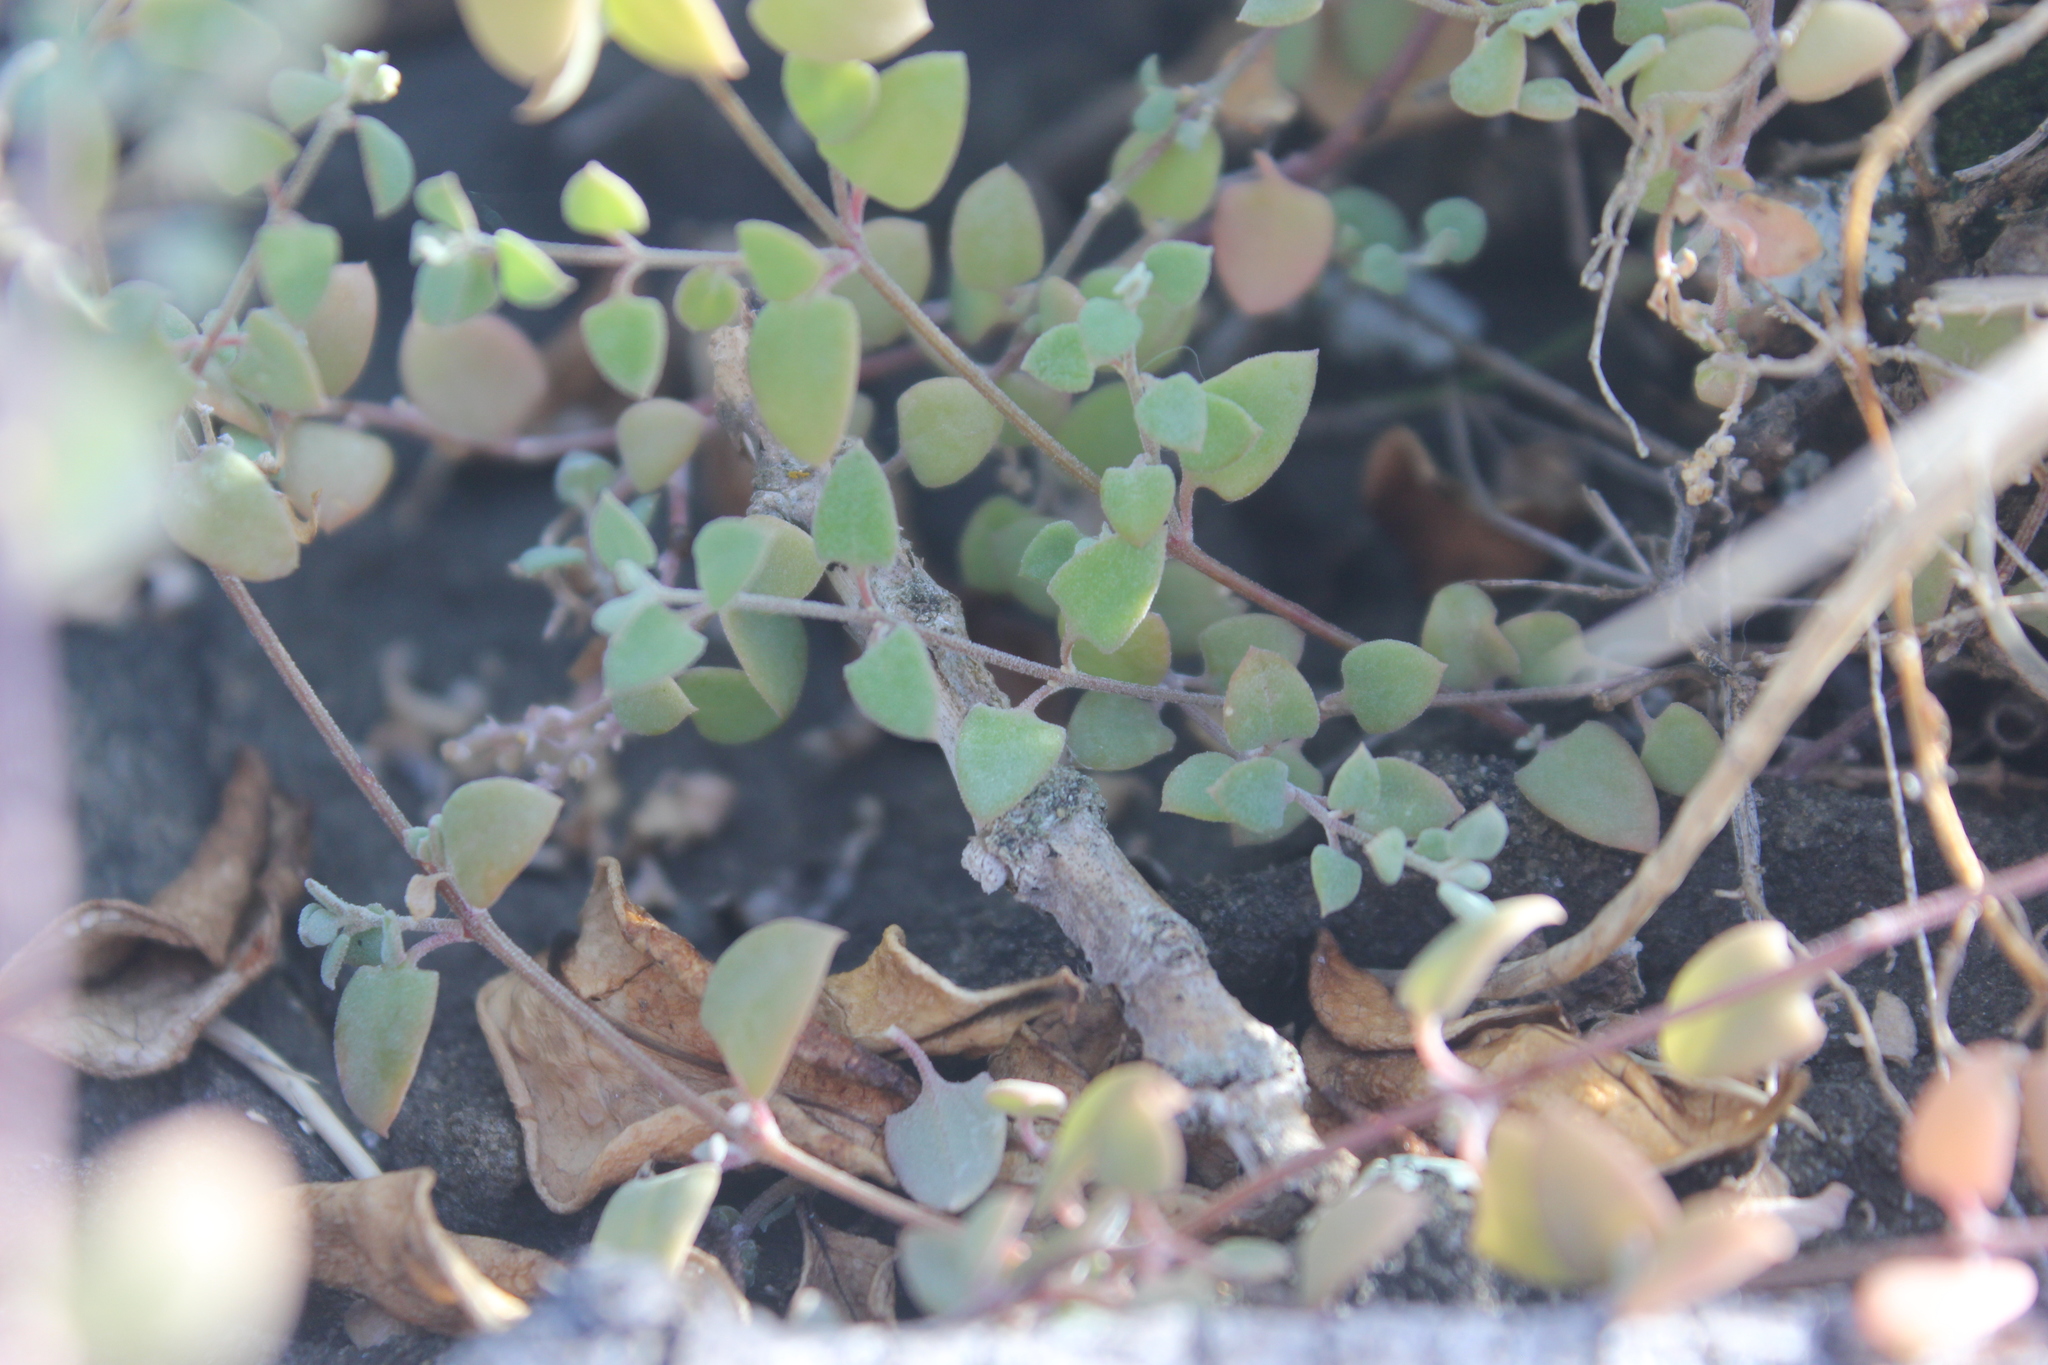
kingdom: Plantae
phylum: Tracheophyta
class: Magnoliopsida
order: Caryophyllales
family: Amaranthaceae
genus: Chenopodium
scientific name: Chenopodium triandrum
